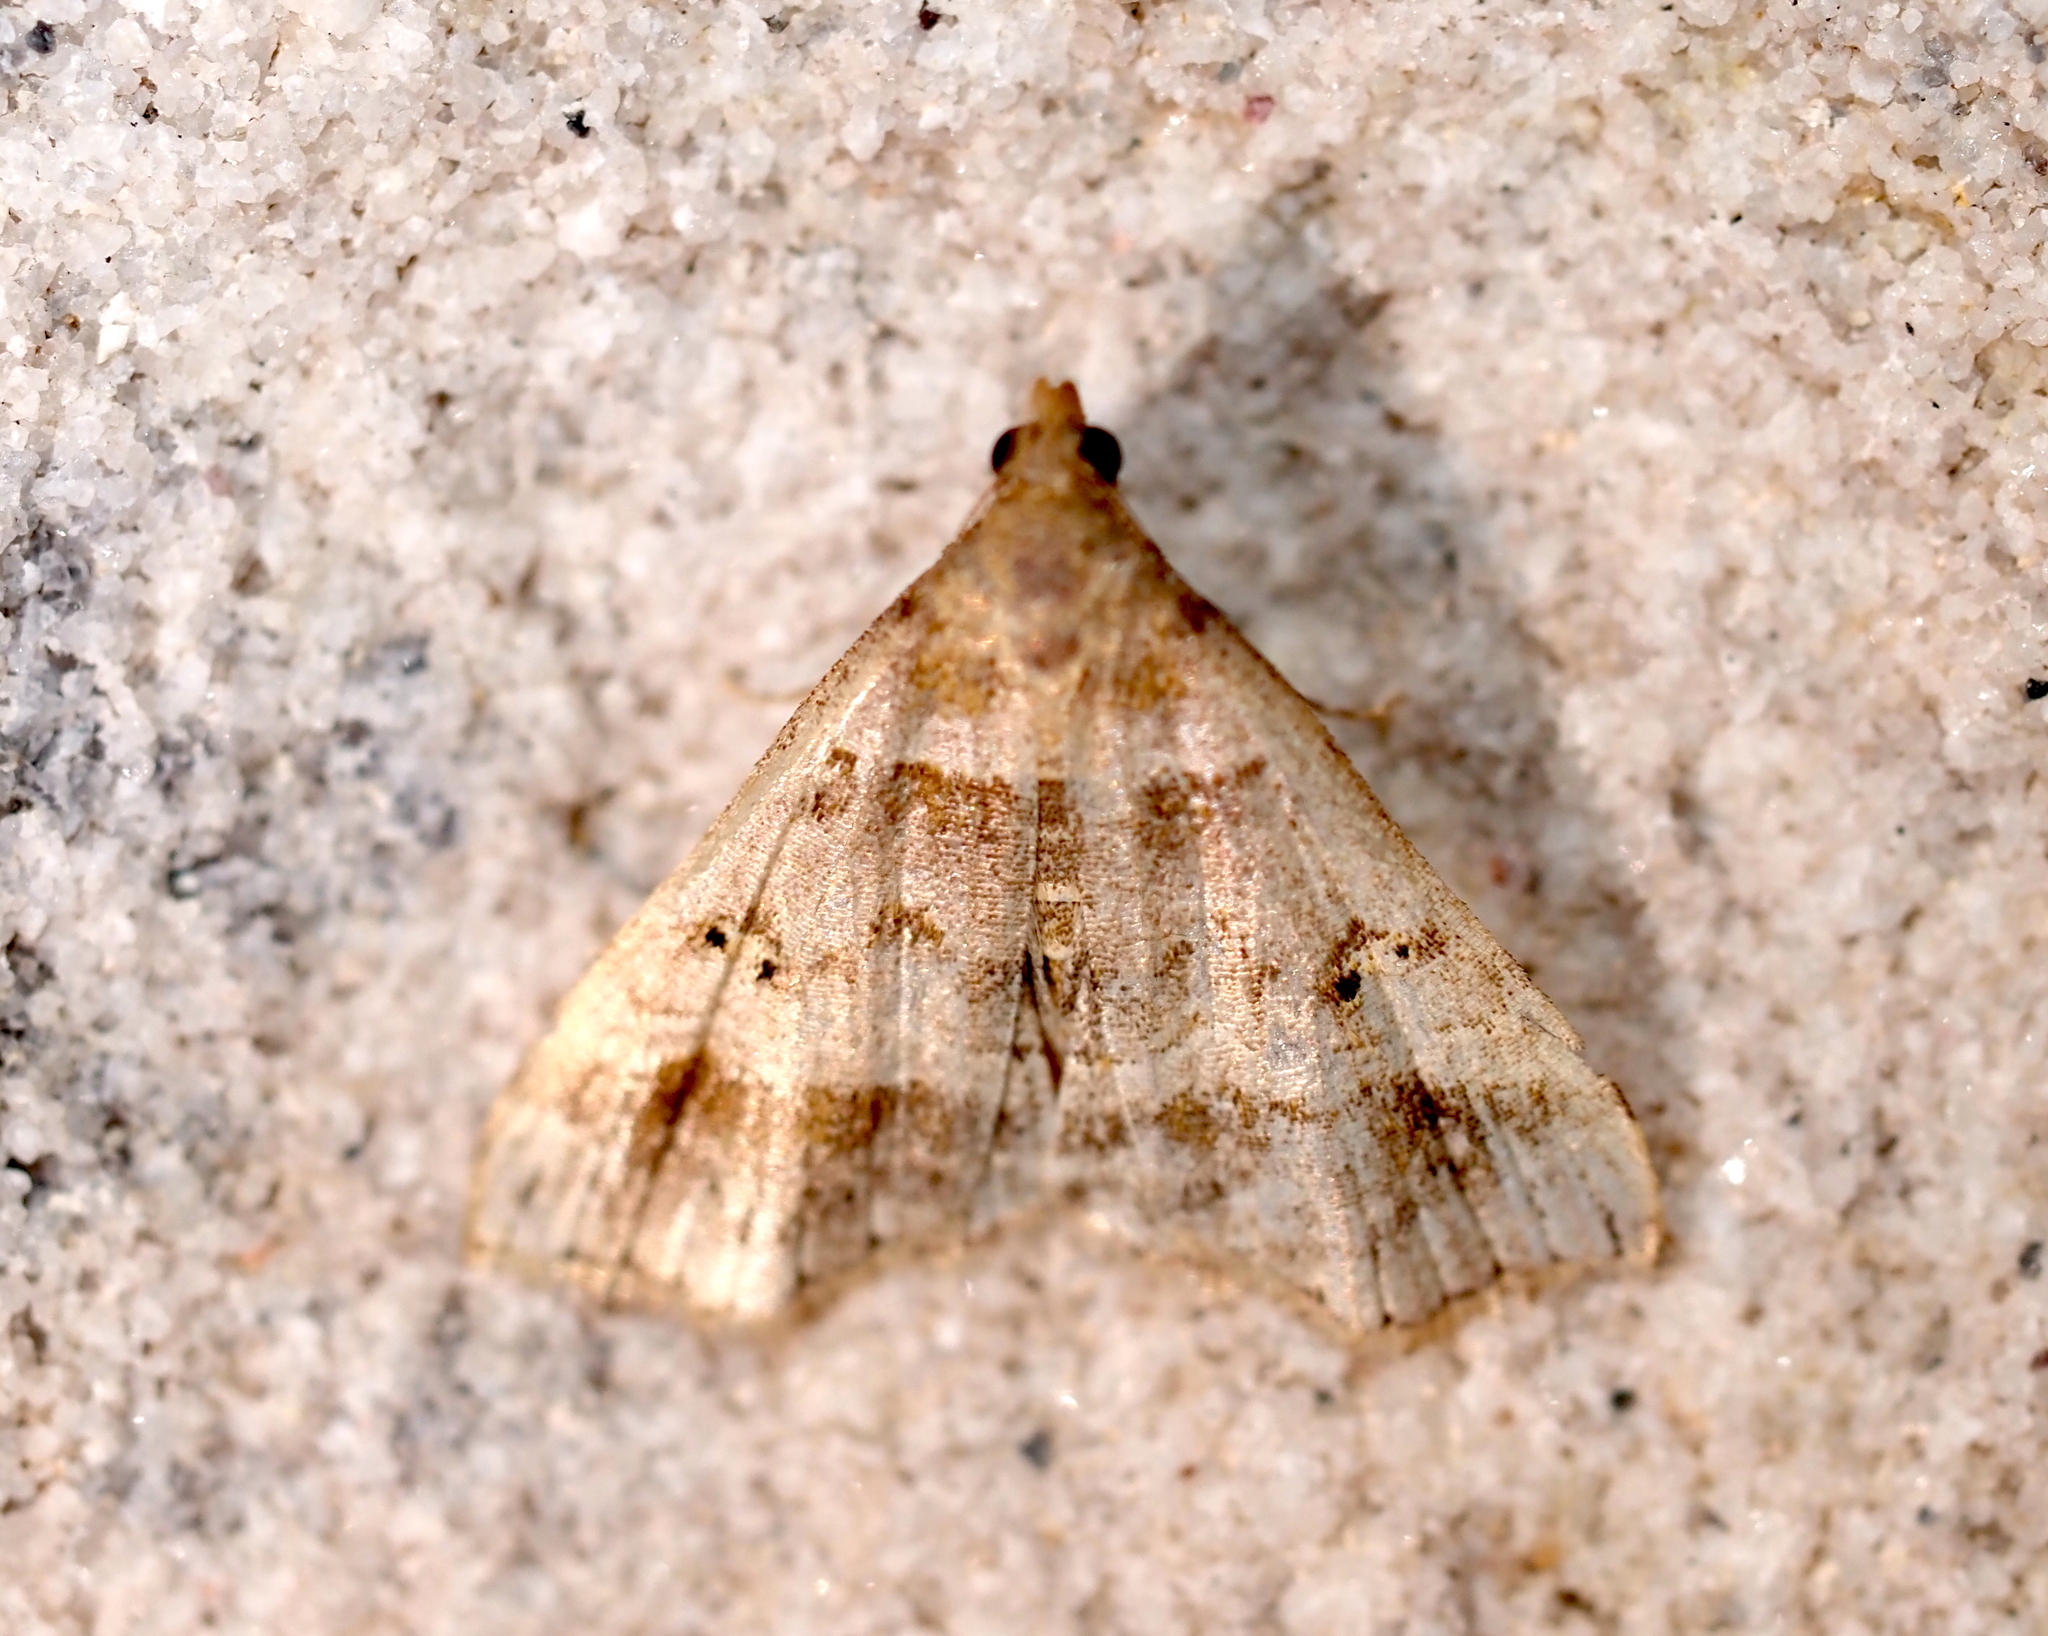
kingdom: Animalia
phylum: Arthropoda
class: Insecta
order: Lepidoptera
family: Erebidae
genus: Phaeolita
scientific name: Phaeolita pyramusalis
